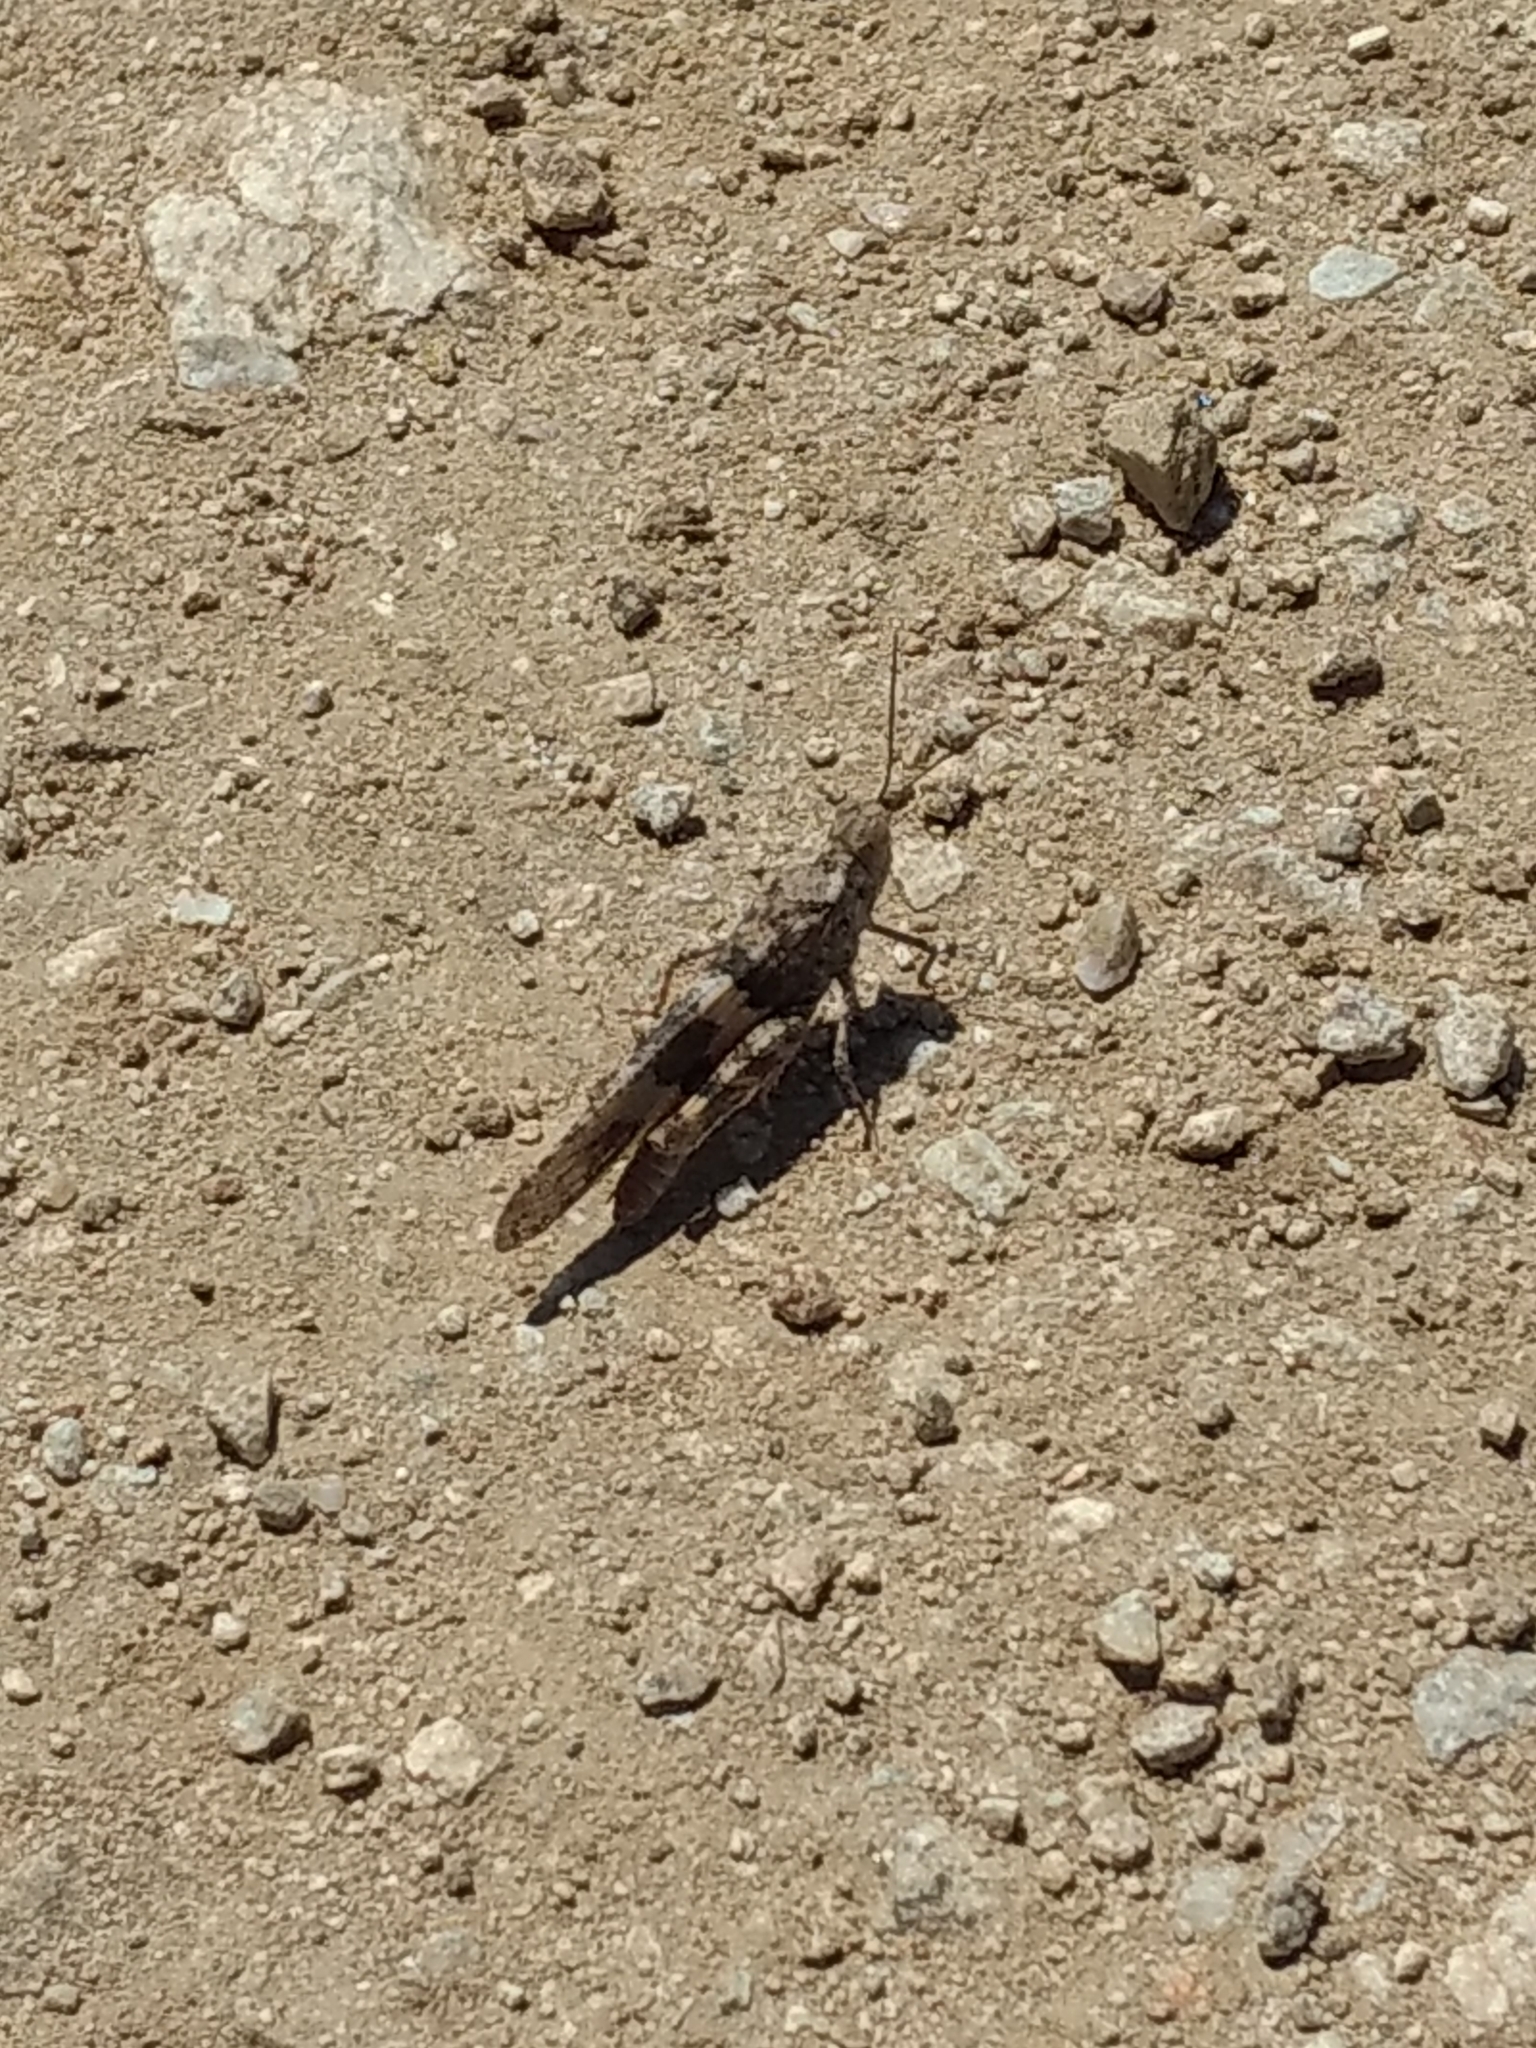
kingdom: Animalia
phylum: Arthropoda
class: Insecta
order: Orthoptera
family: Acrididae
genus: Trimerotropis
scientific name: Trimerotropis pallidipennis
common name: Pallid-winged grasshopper
